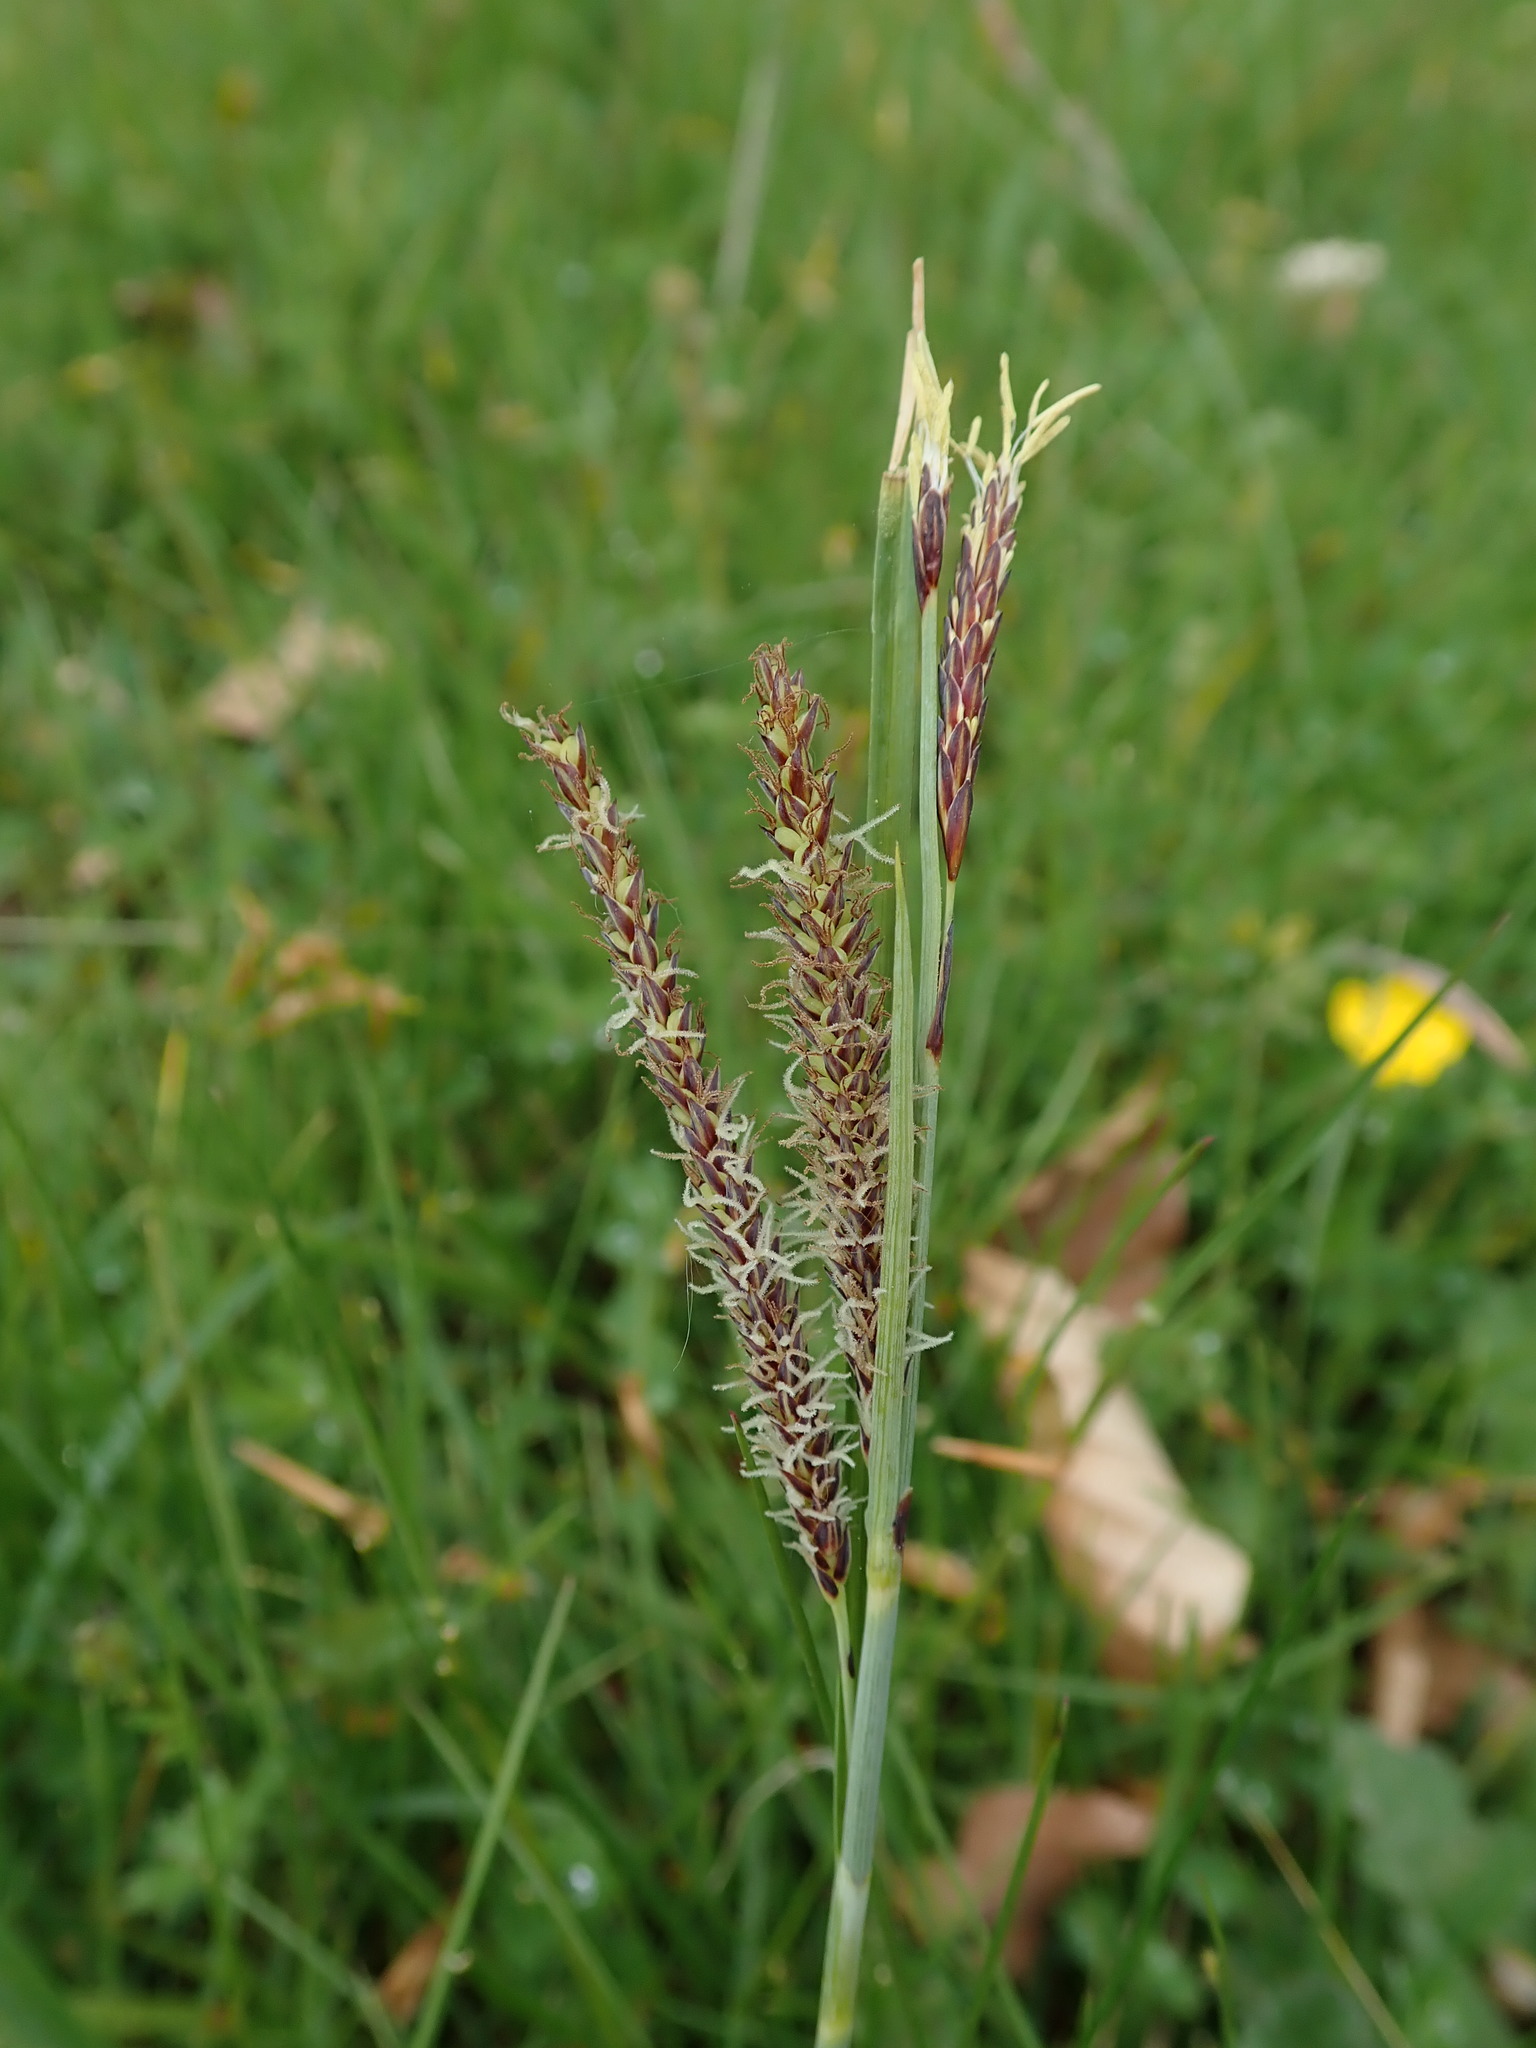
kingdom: Plantae
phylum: Tracheophyta
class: Liliopsida
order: Poales
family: Cyperaceae
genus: Carex
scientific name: Carex flacca
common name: Glaucous sedge
